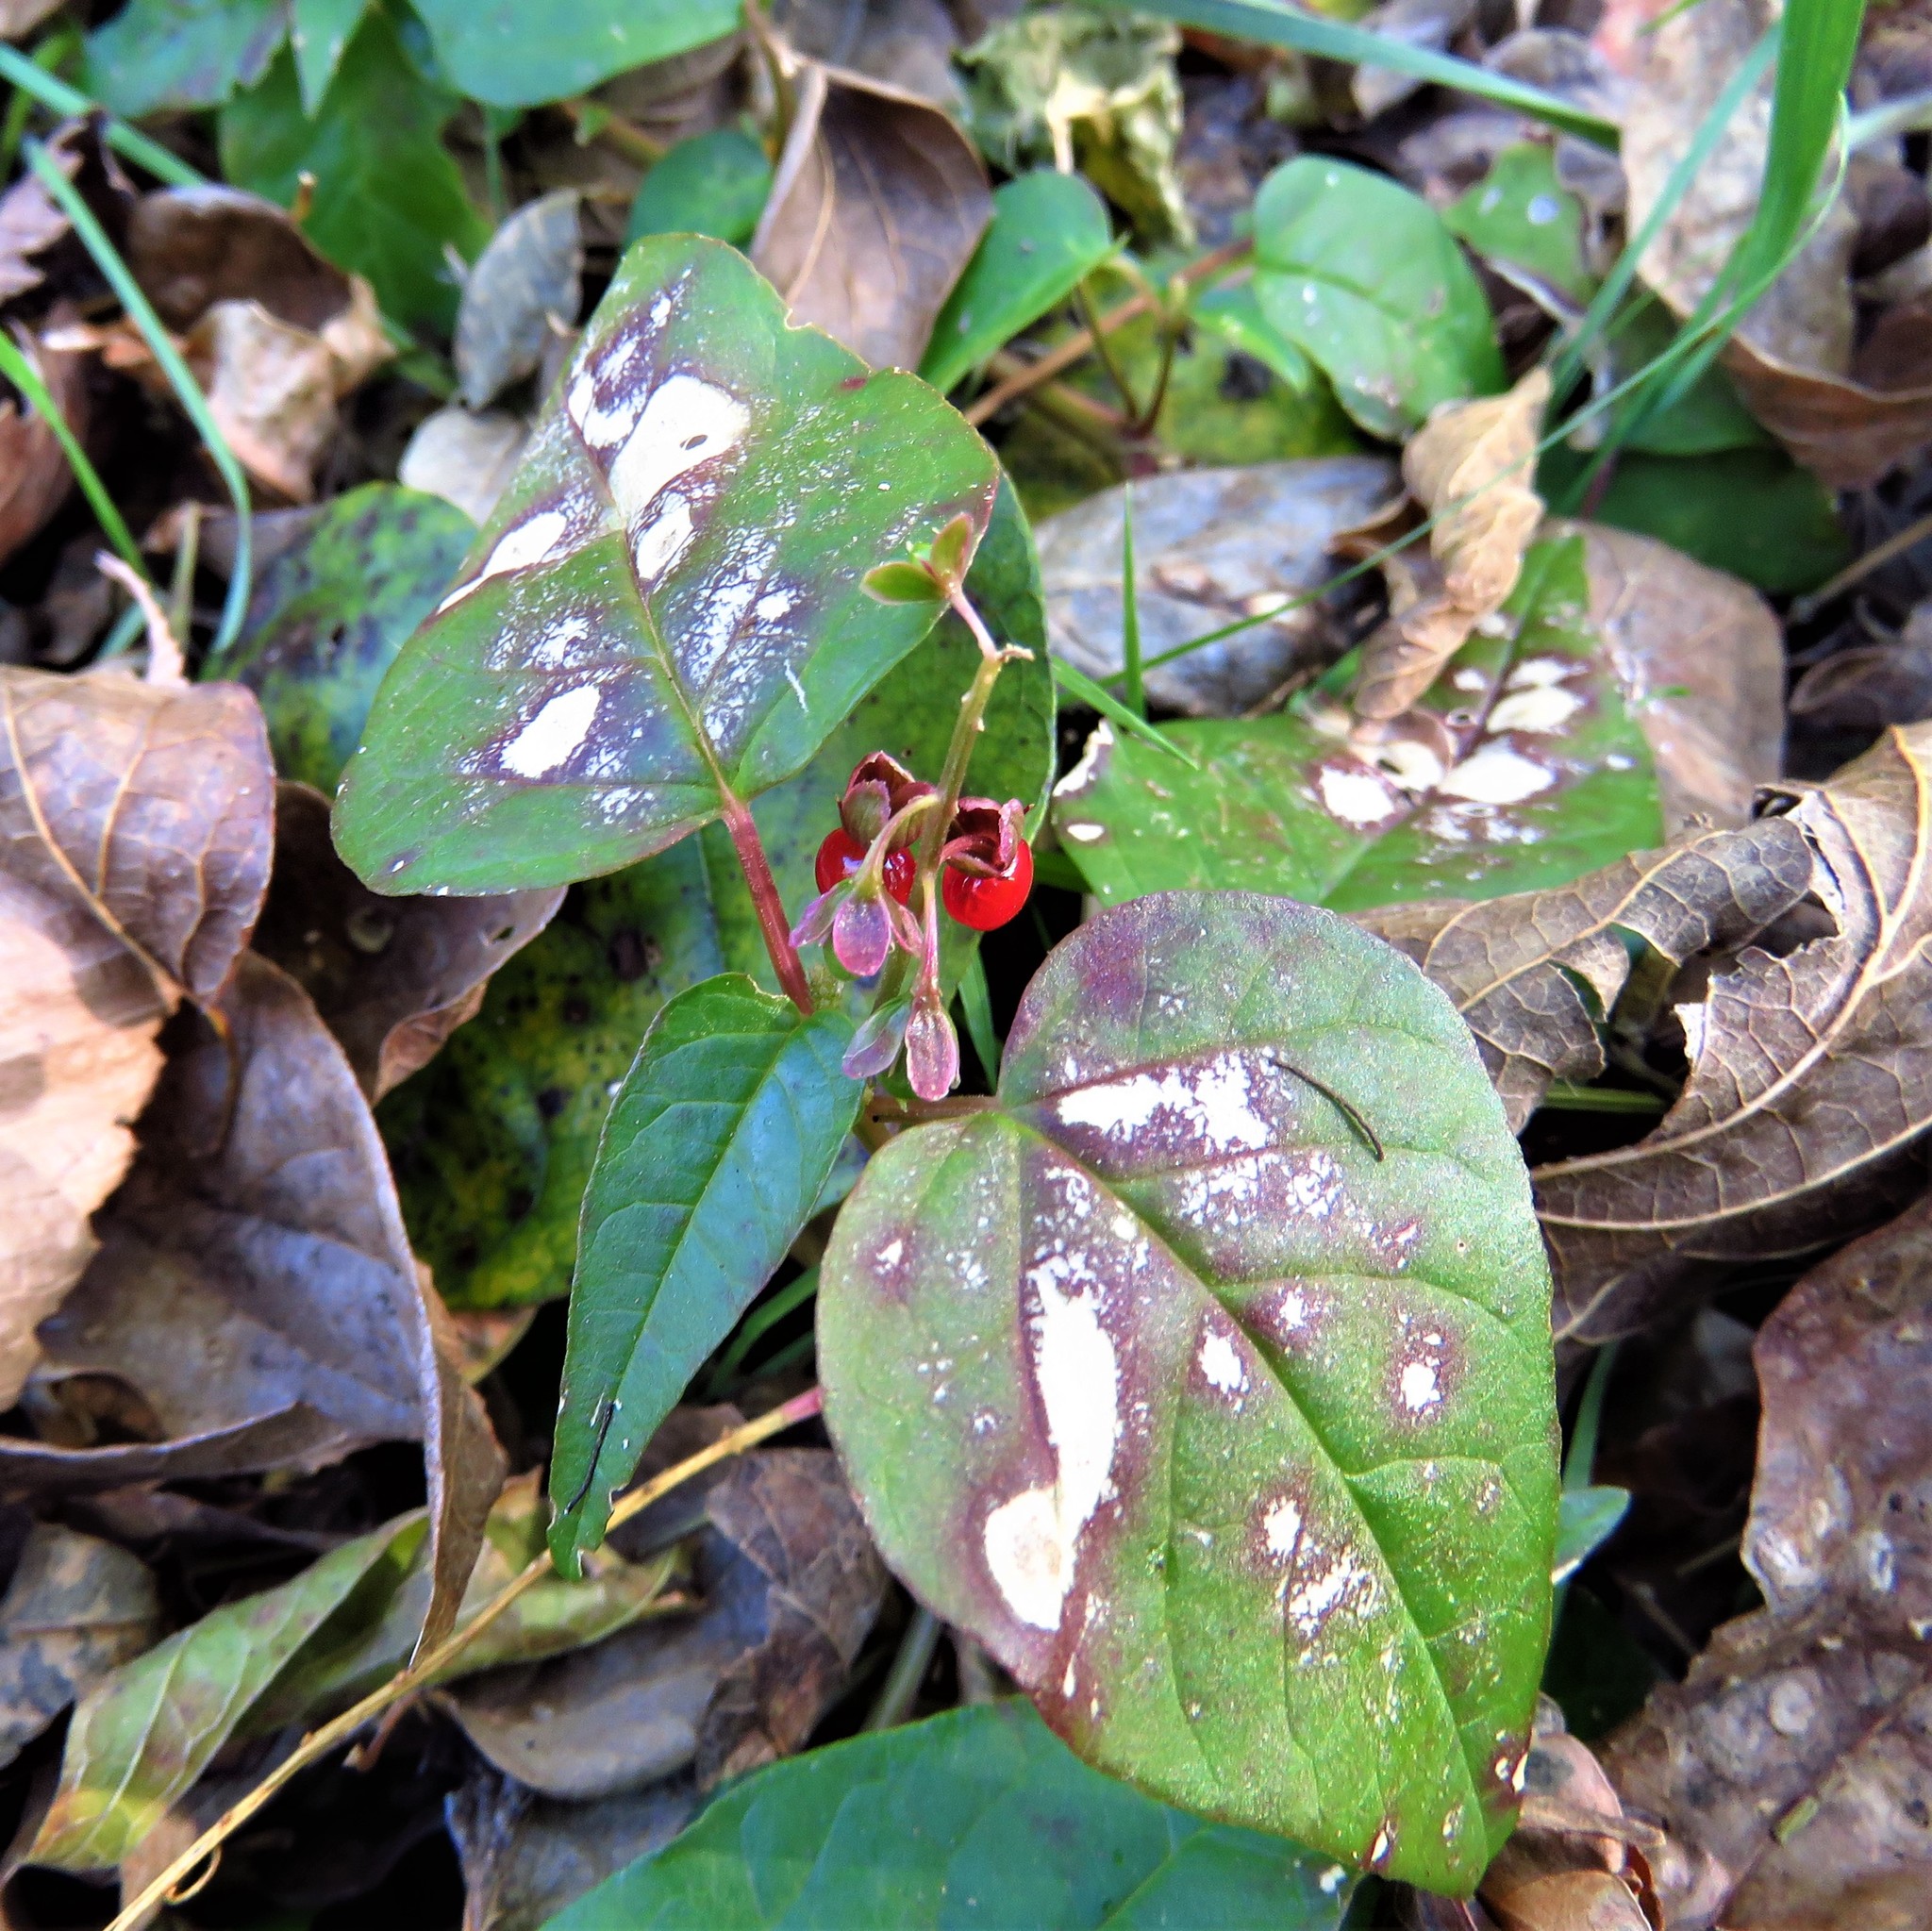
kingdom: Plantae
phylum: Tracheophyta
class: Magnoliopsida
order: Caryophyllales
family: Phytolaccaceae
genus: Rivina
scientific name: Rivina humilis
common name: Rougeplant
